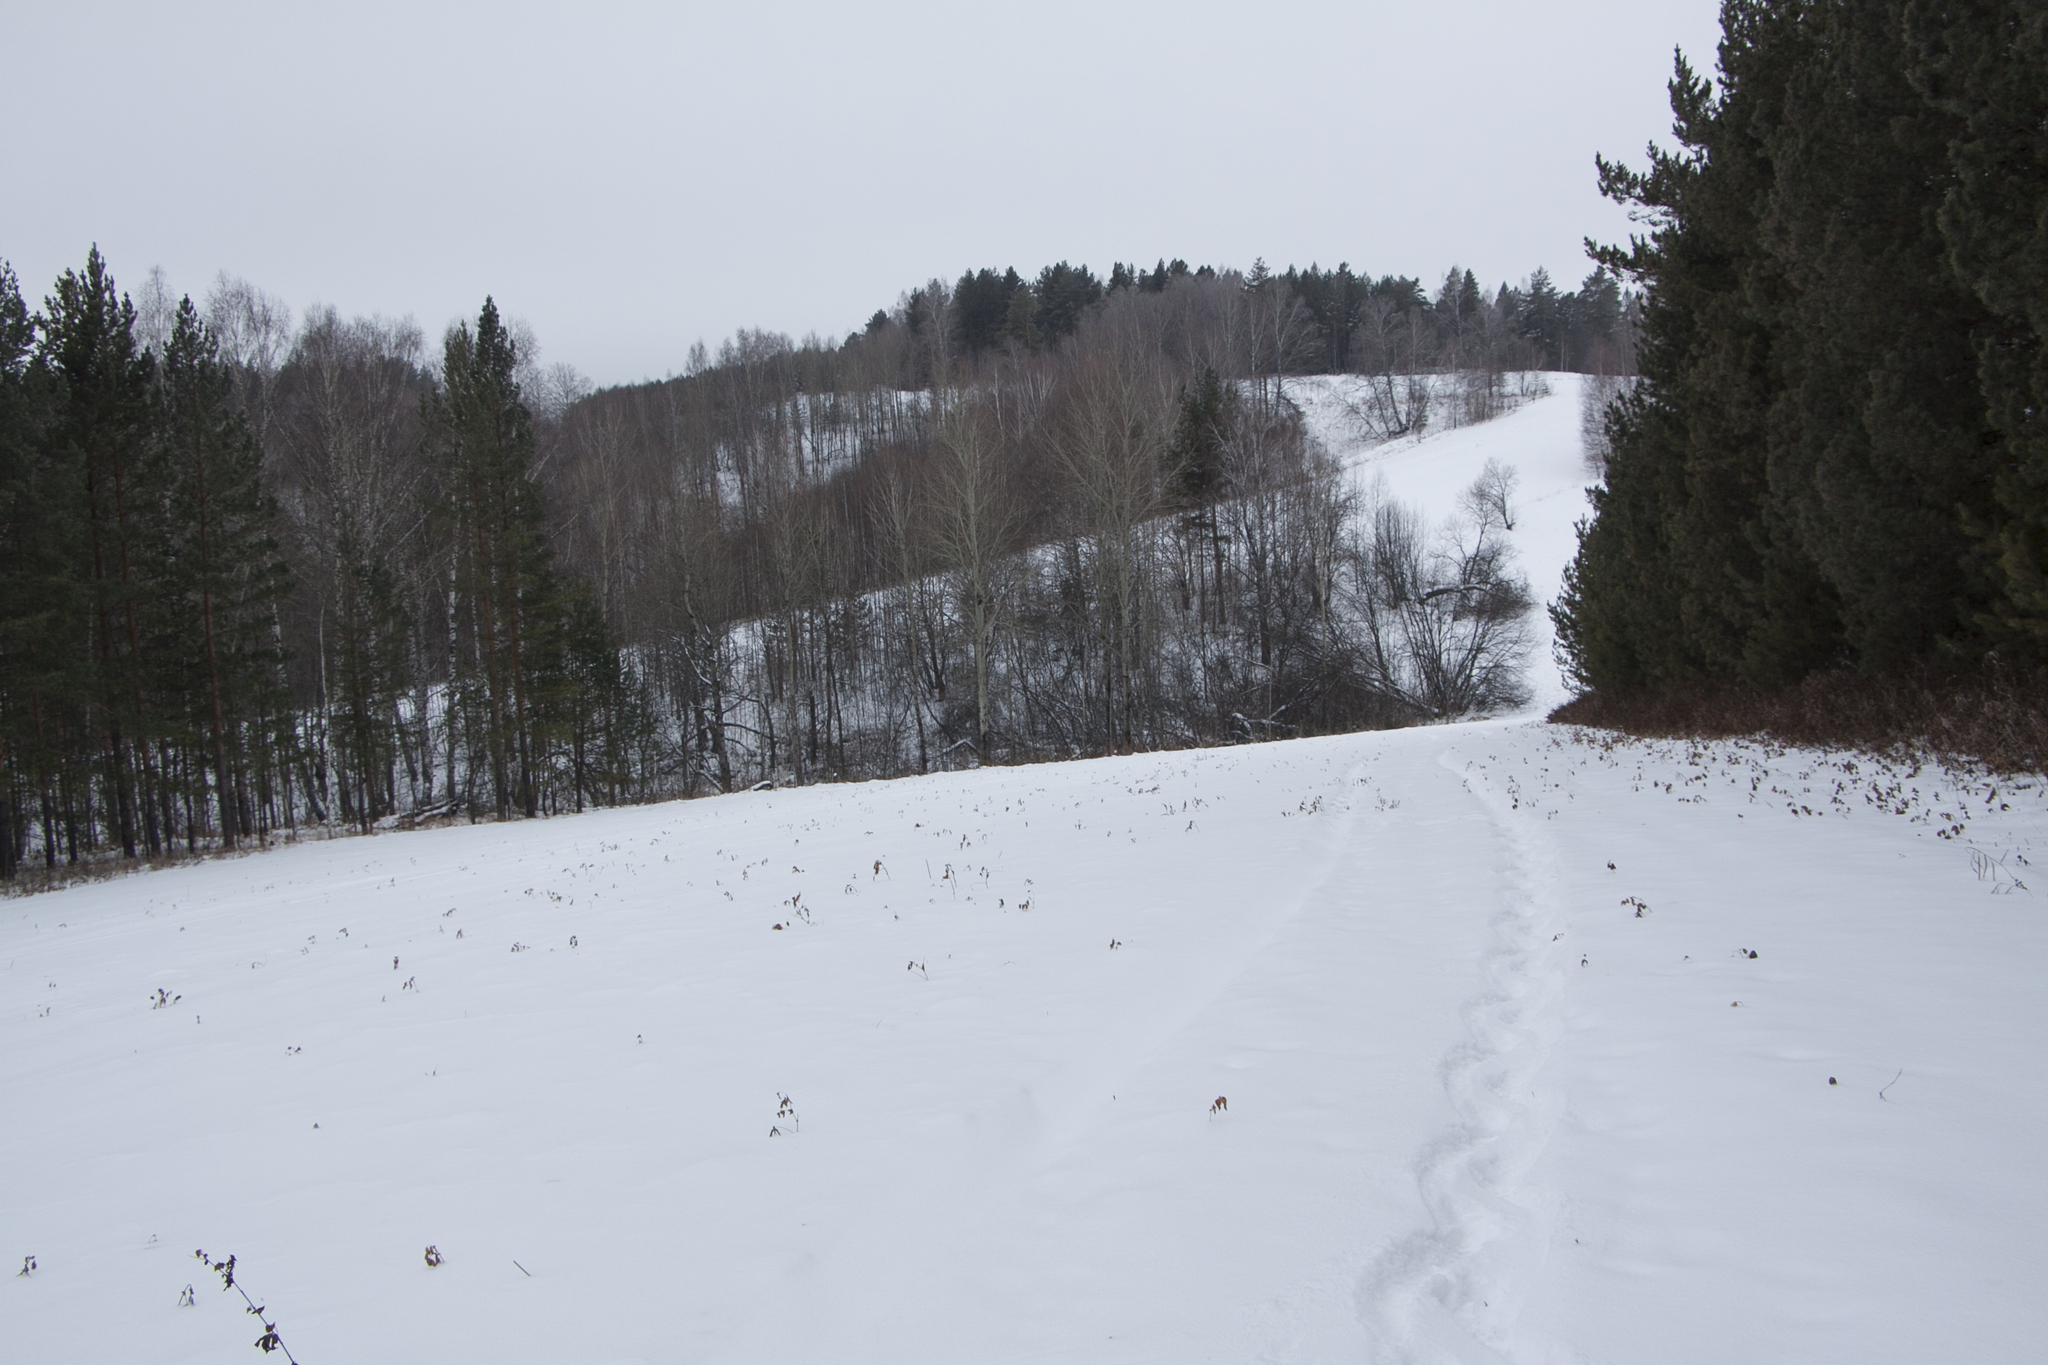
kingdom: Plantae
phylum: Tracheophyta
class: Pinopsida
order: Pinales
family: Pinaceae
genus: Pinus
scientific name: Pinus sylvestris
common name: Scots pine
